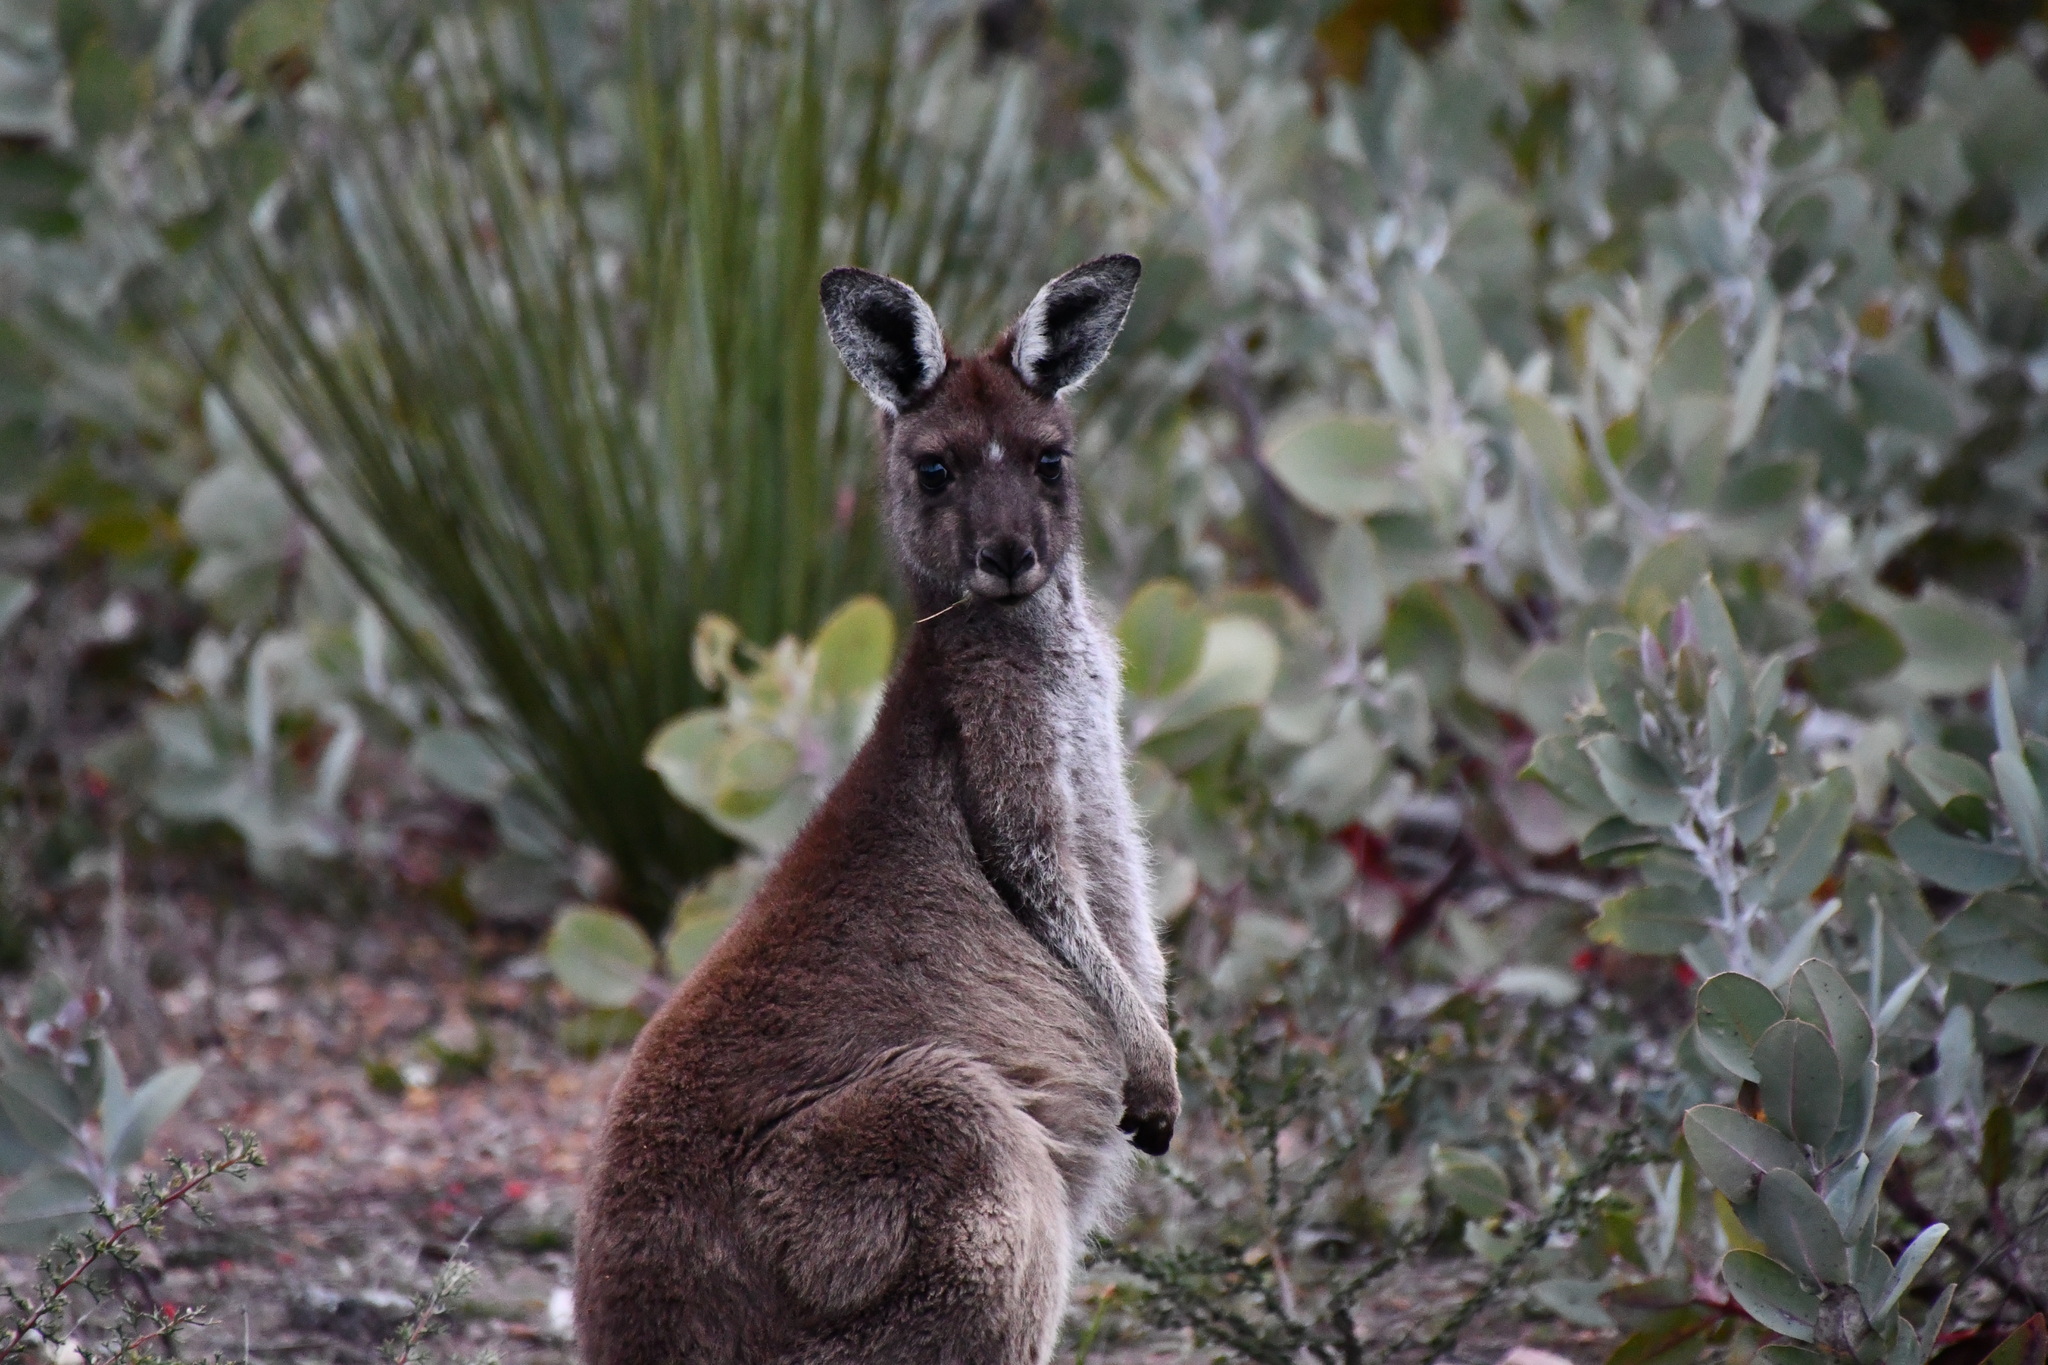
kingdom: Animalia
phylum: Chordata
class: Mammalia
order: Diprotodontia
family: Macropodidae
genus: Macropus
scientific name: Macropus fuliginosus
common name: Western grey kangaroo
